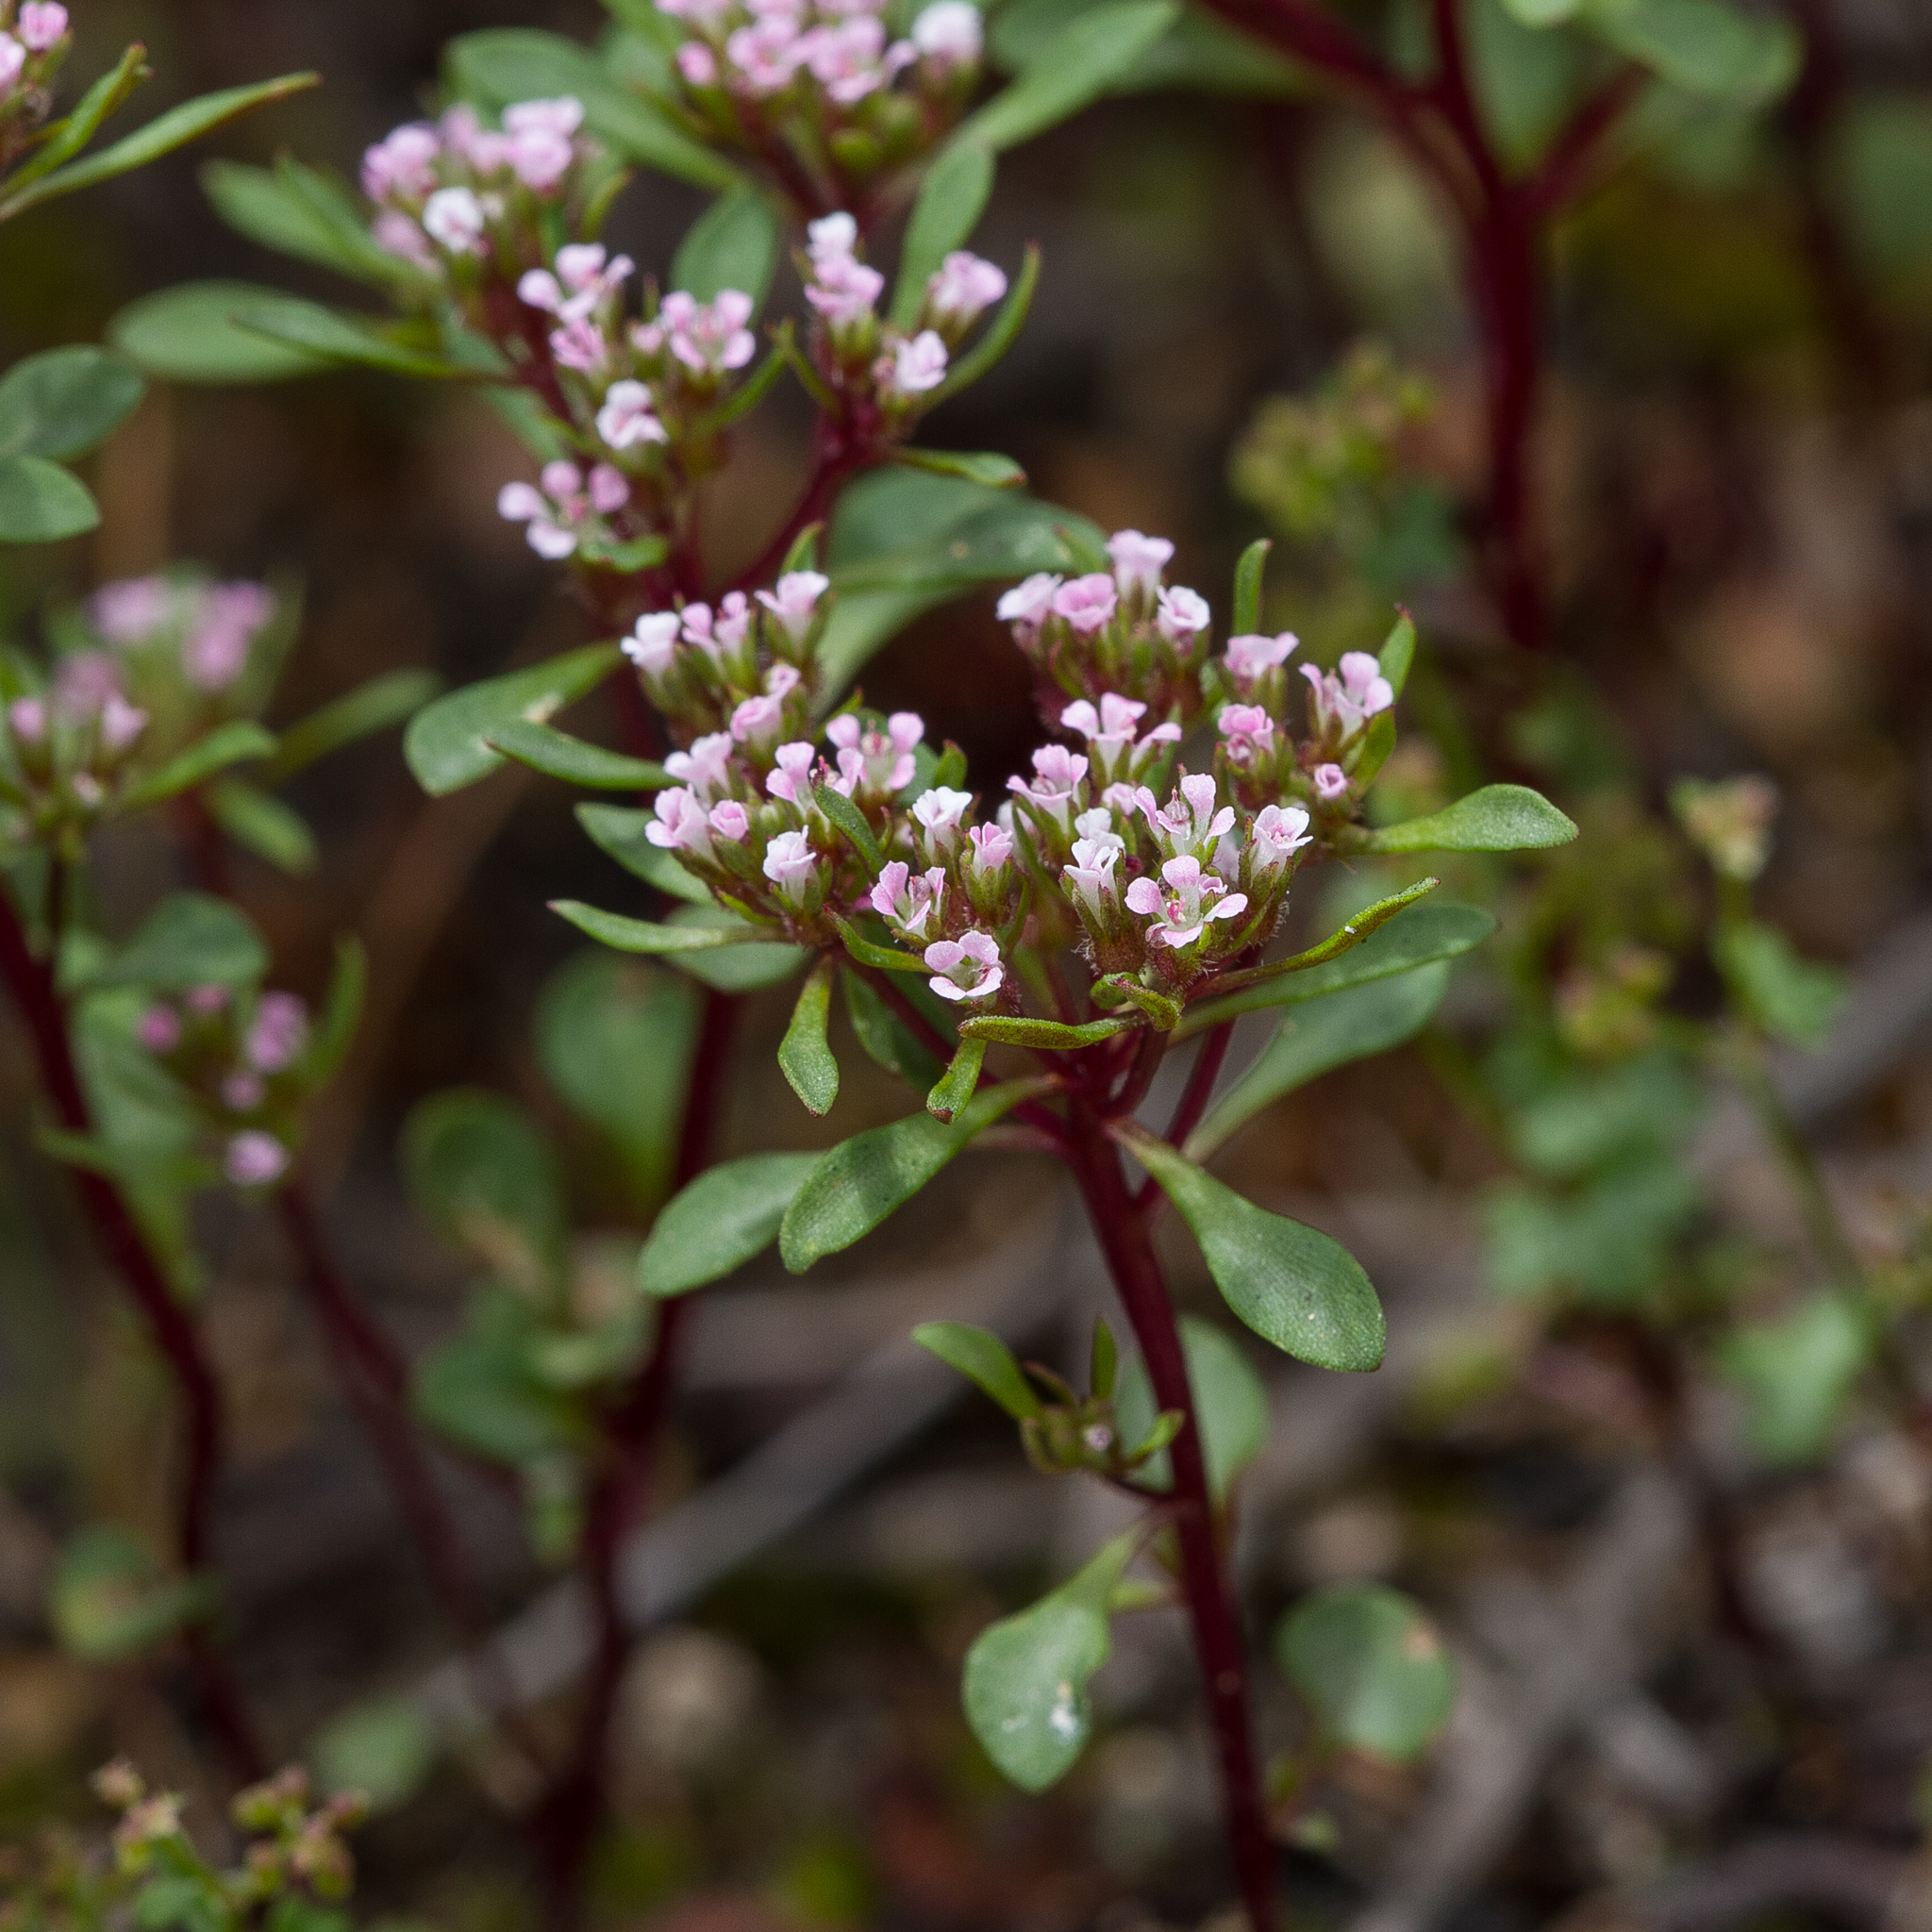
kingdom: Plantae
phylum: Tracheophyta
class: Magnoliopsida
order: Asterales
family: Stylidiaceae
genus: Levenhookia
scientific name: Levenhookia pusilla
